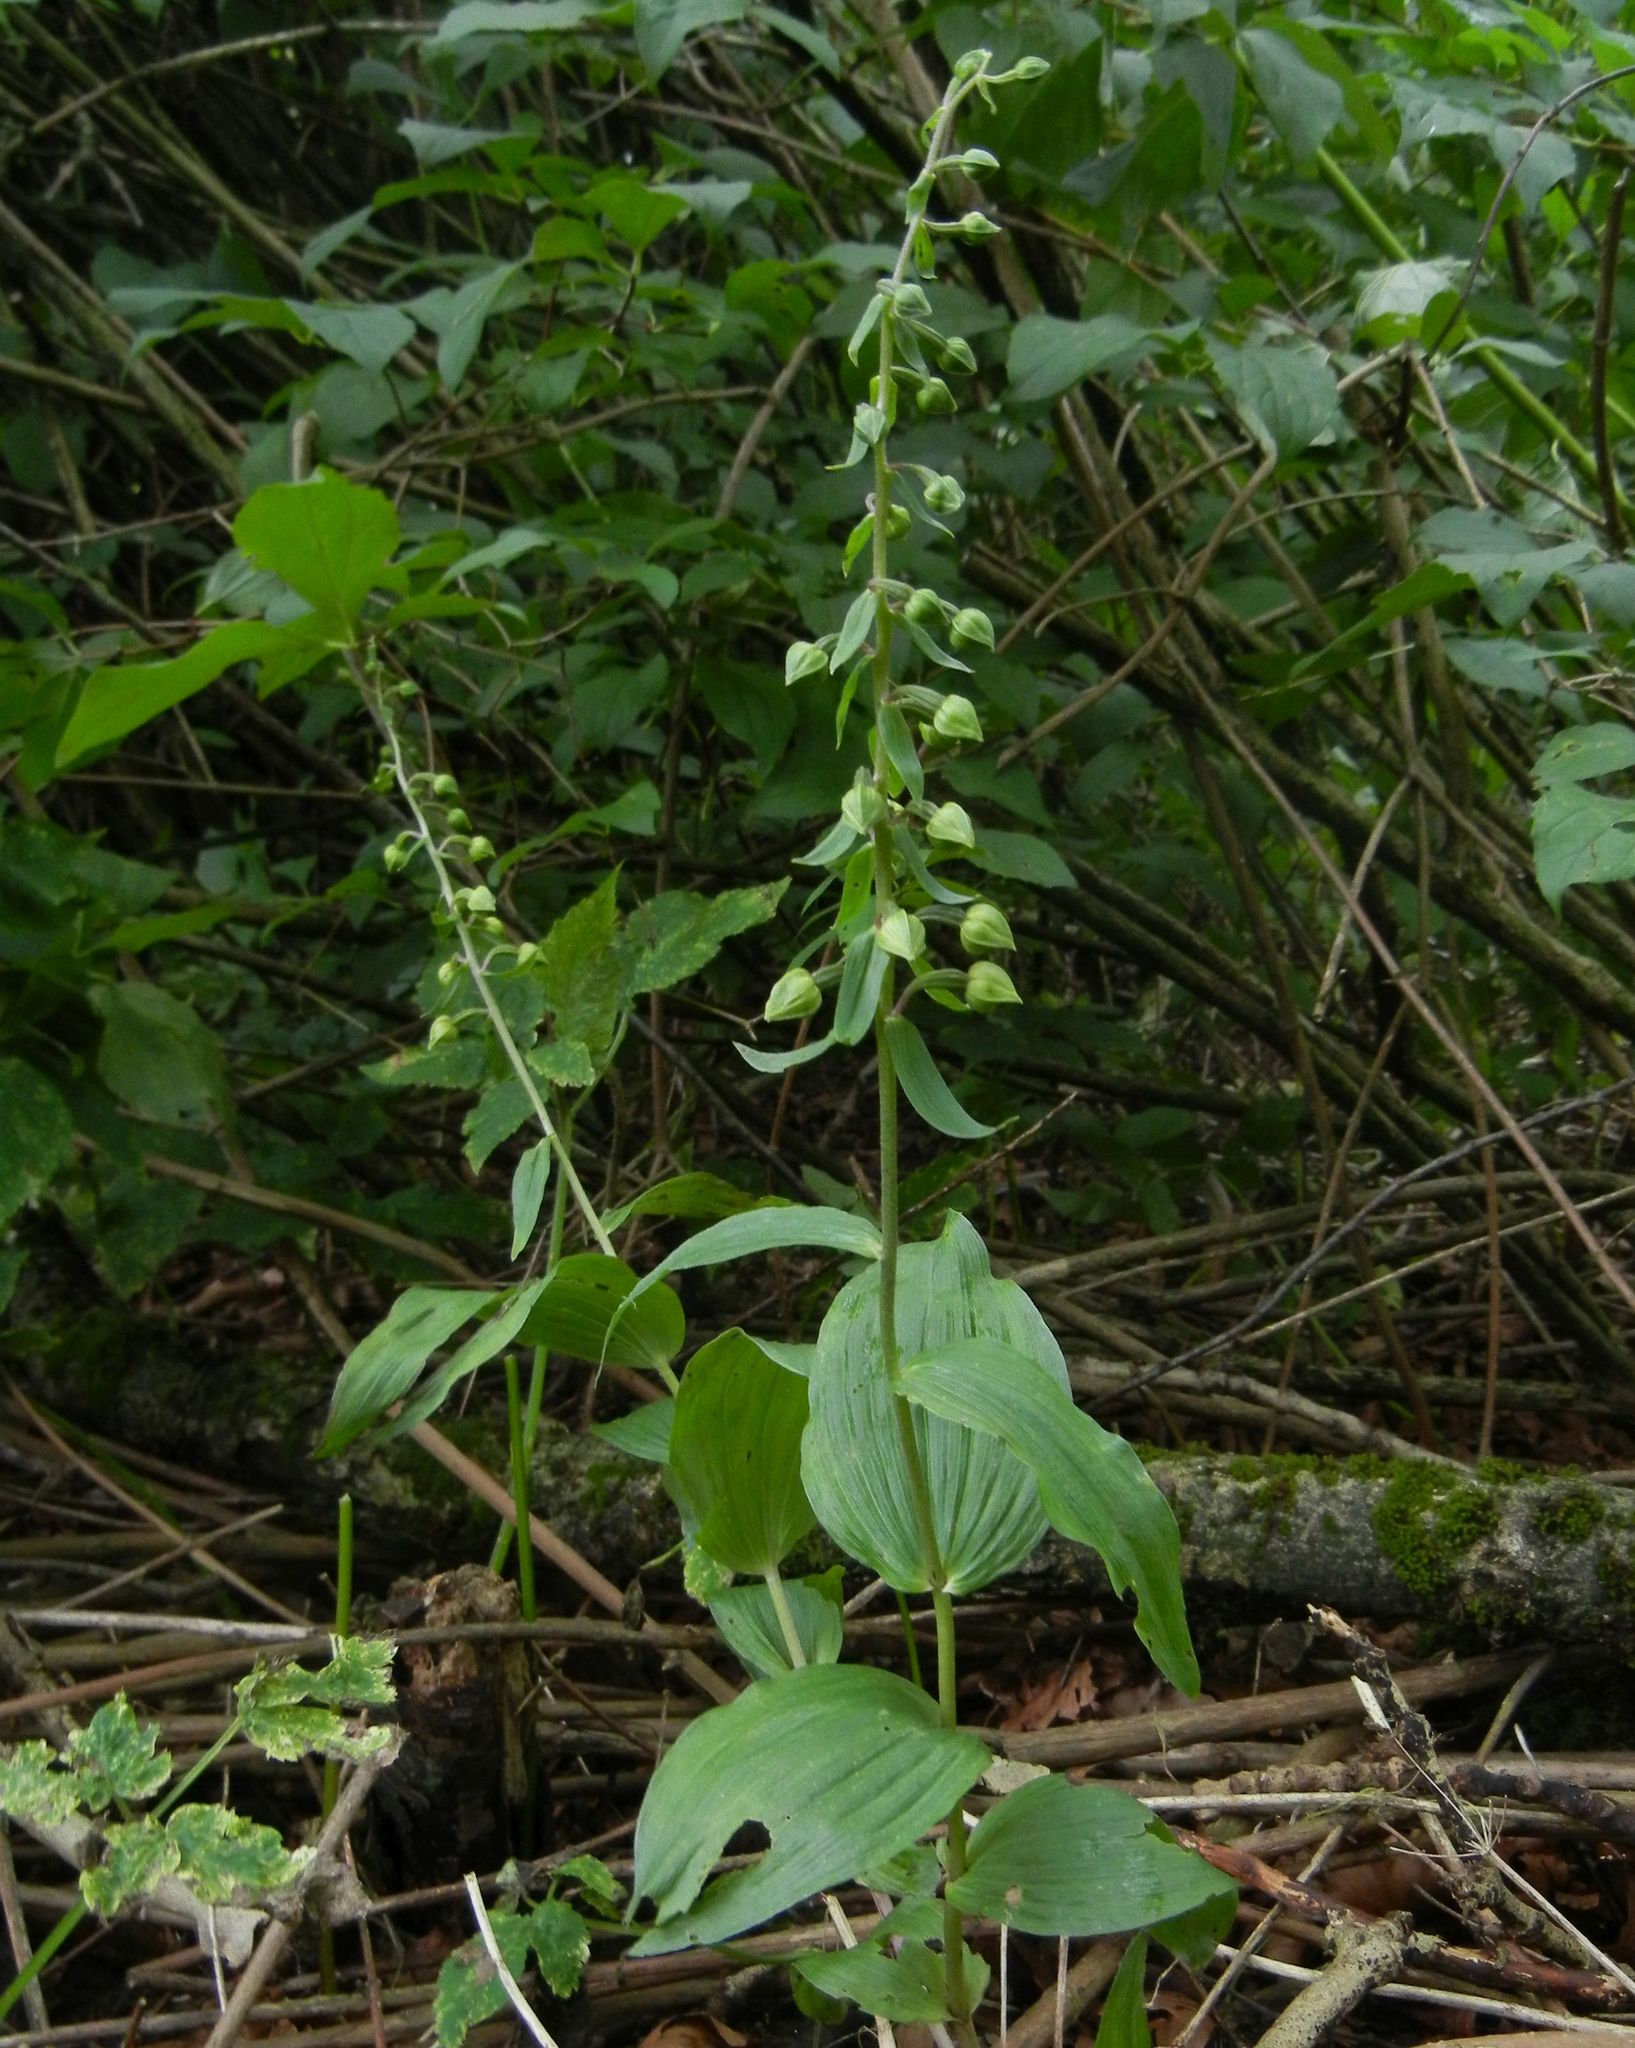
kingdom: Plantae
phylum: Tracheophyta
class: Liliopsida
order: Asparagales
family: Orchidaceae
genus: Epipactis
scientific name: Epipactis helleborine
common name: Broad-leaved helleborine
